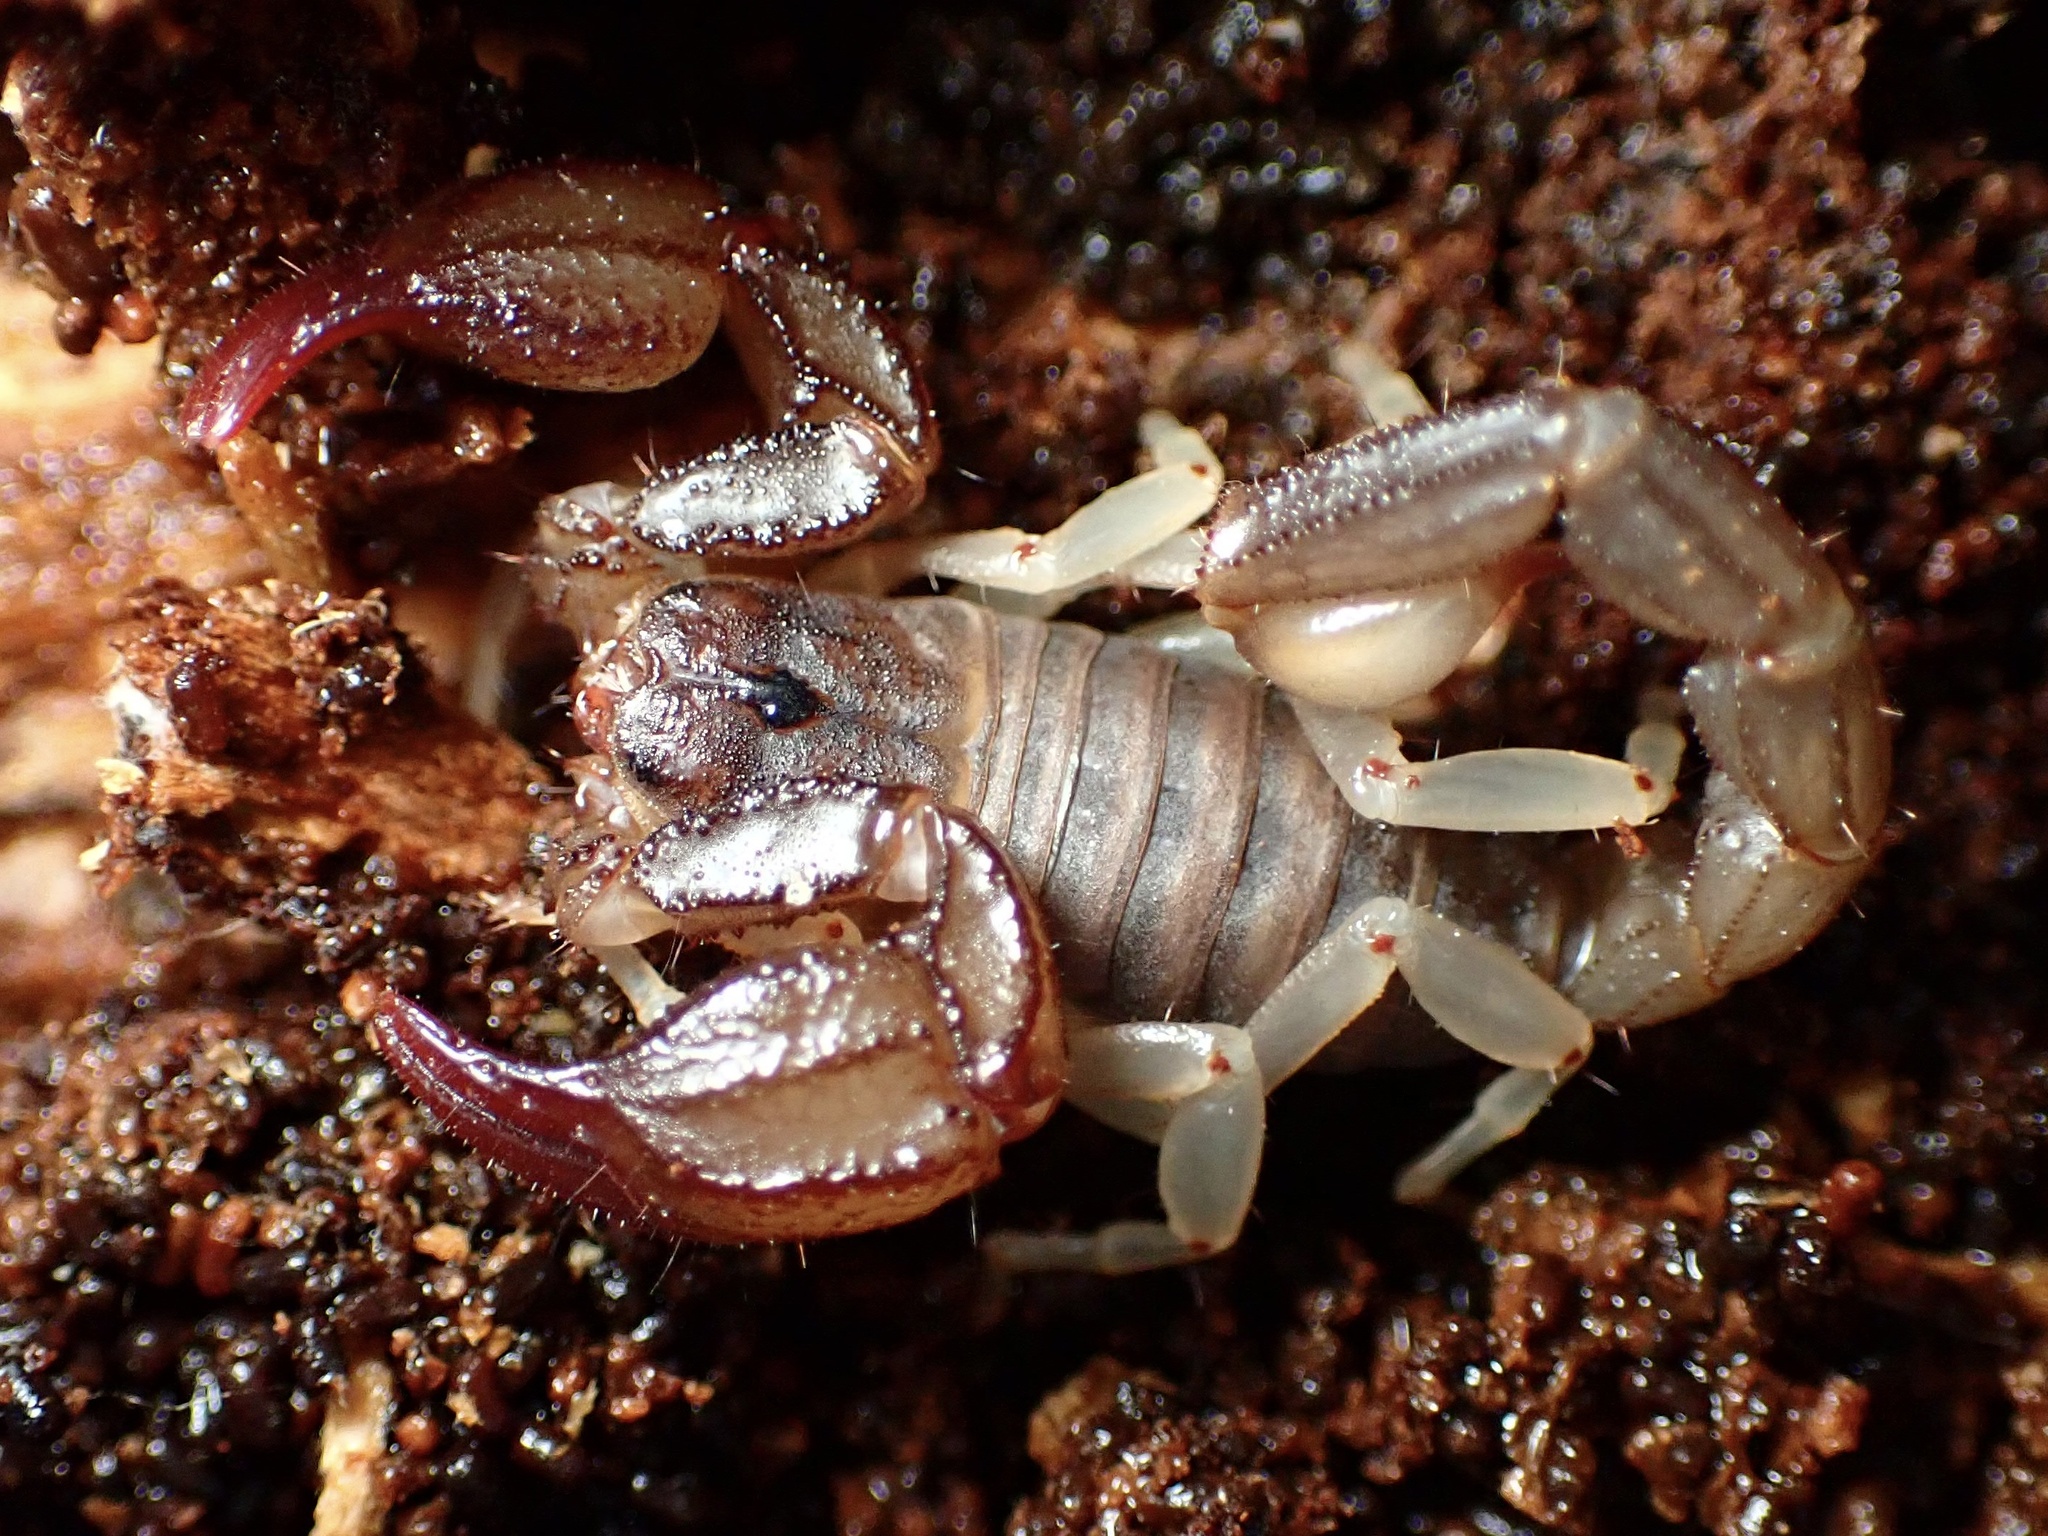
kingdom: Animalia
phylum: Arthropoda
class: Arachnida
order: Scorpiones
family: Chactidae
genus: Uroctonus
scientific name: Uroctonus mordax
